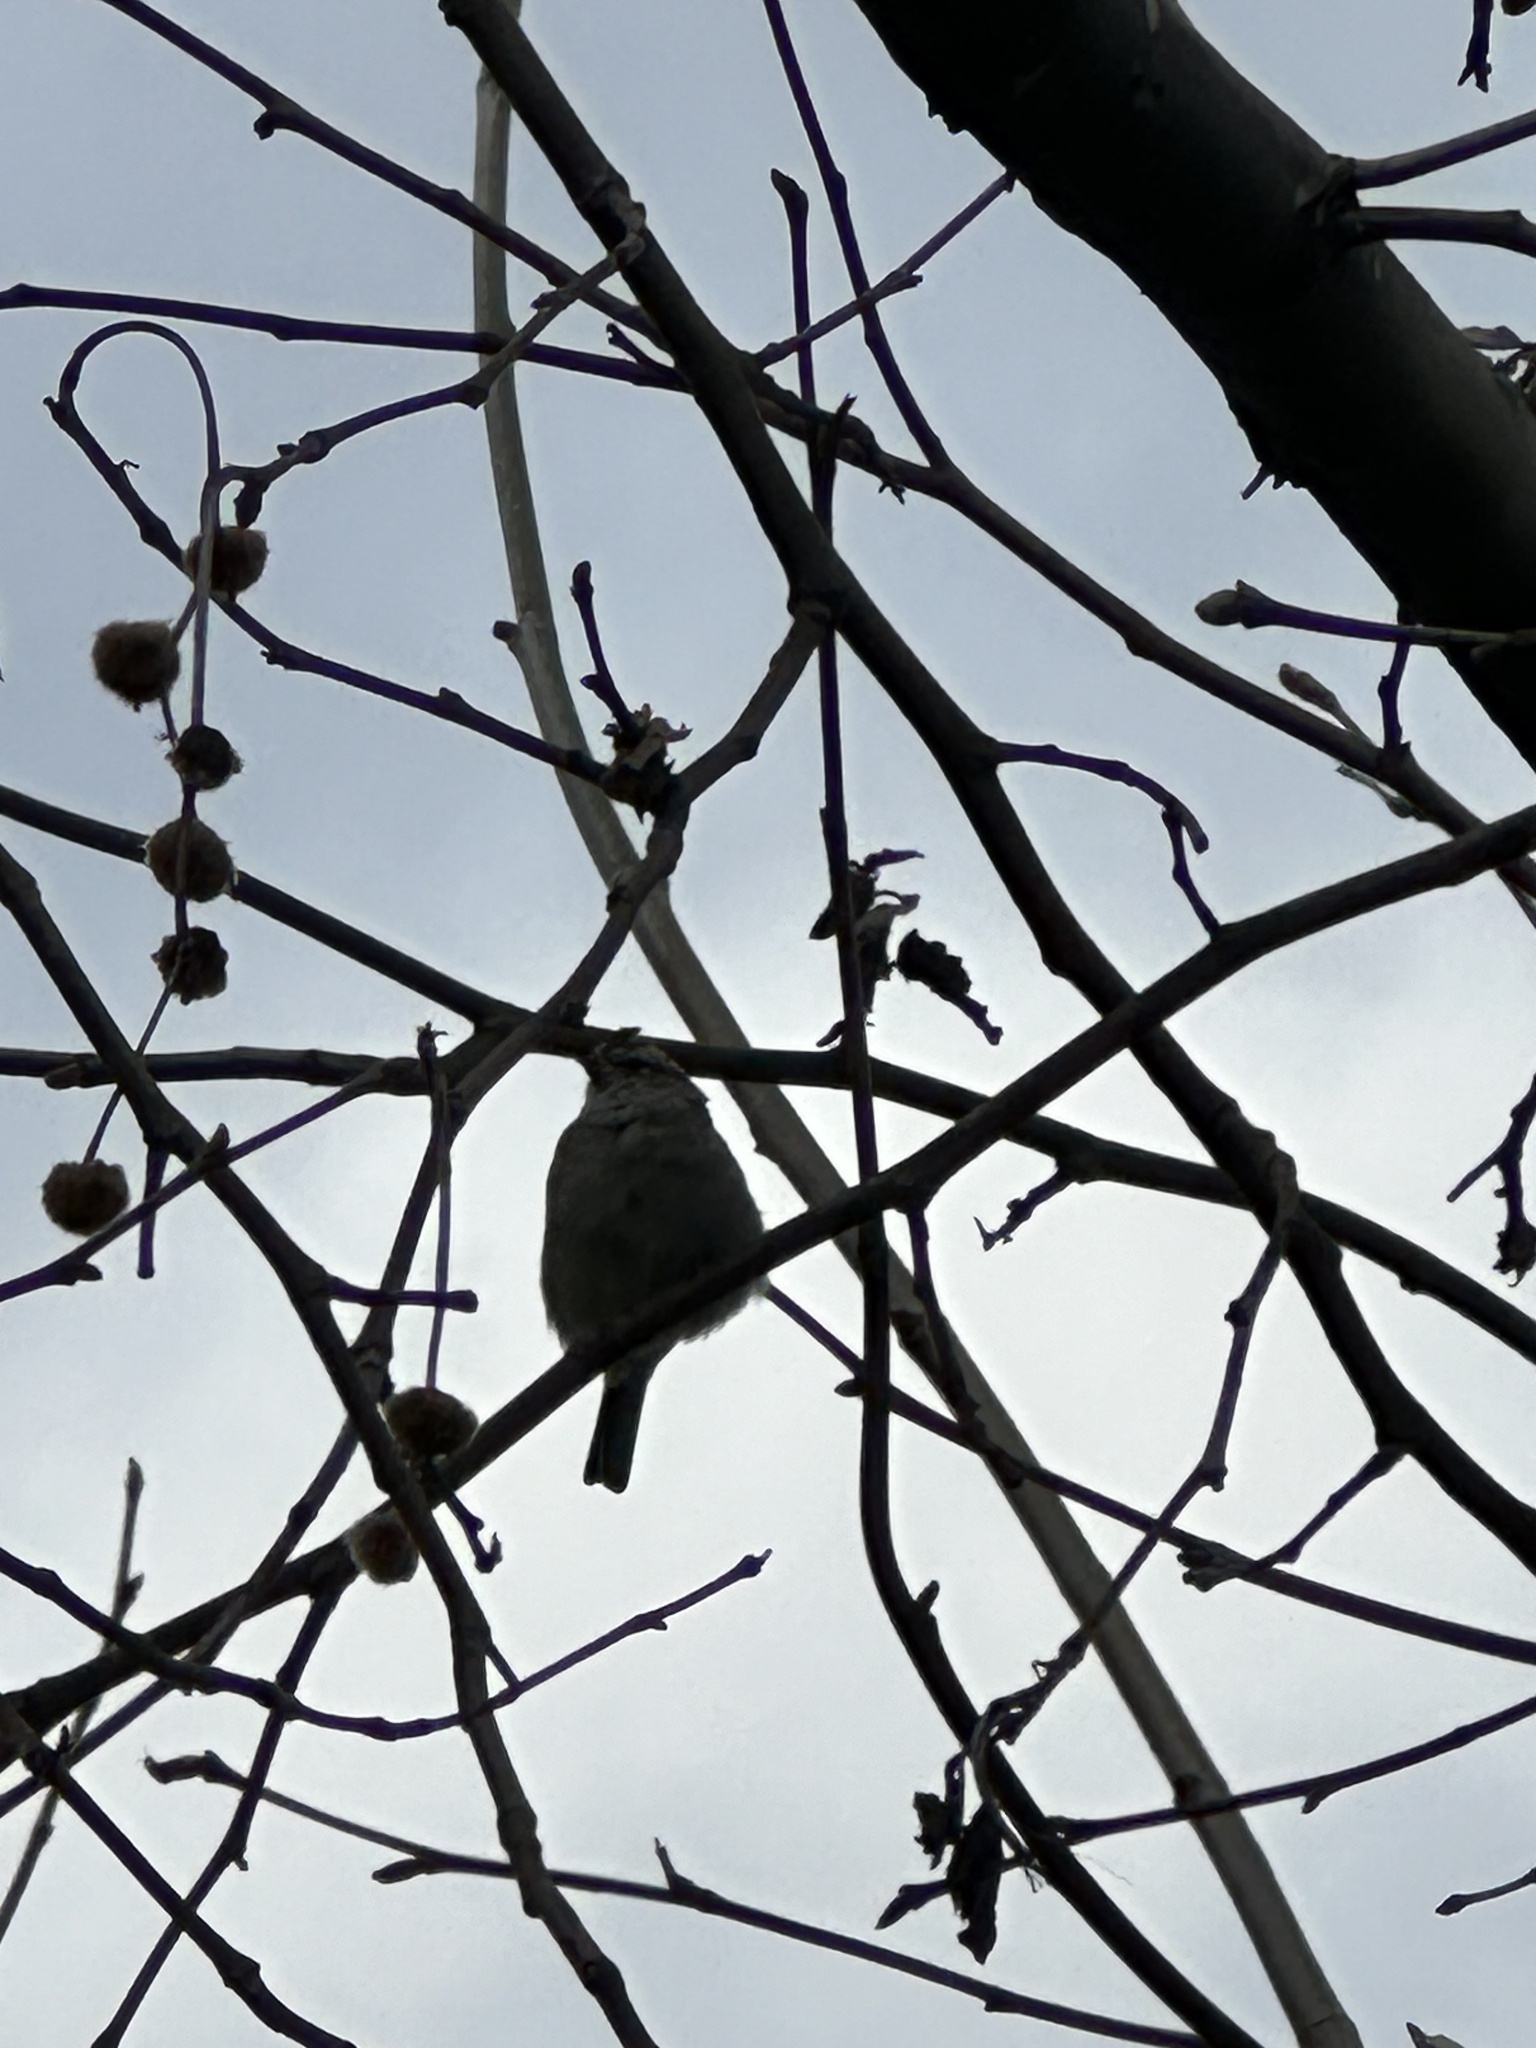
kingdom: Animalia
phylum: Chordata
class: Aves
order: Passeriformes
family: Passerellidae
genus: Spizella
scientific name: Spizella passerina
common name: Chipping sparrow
